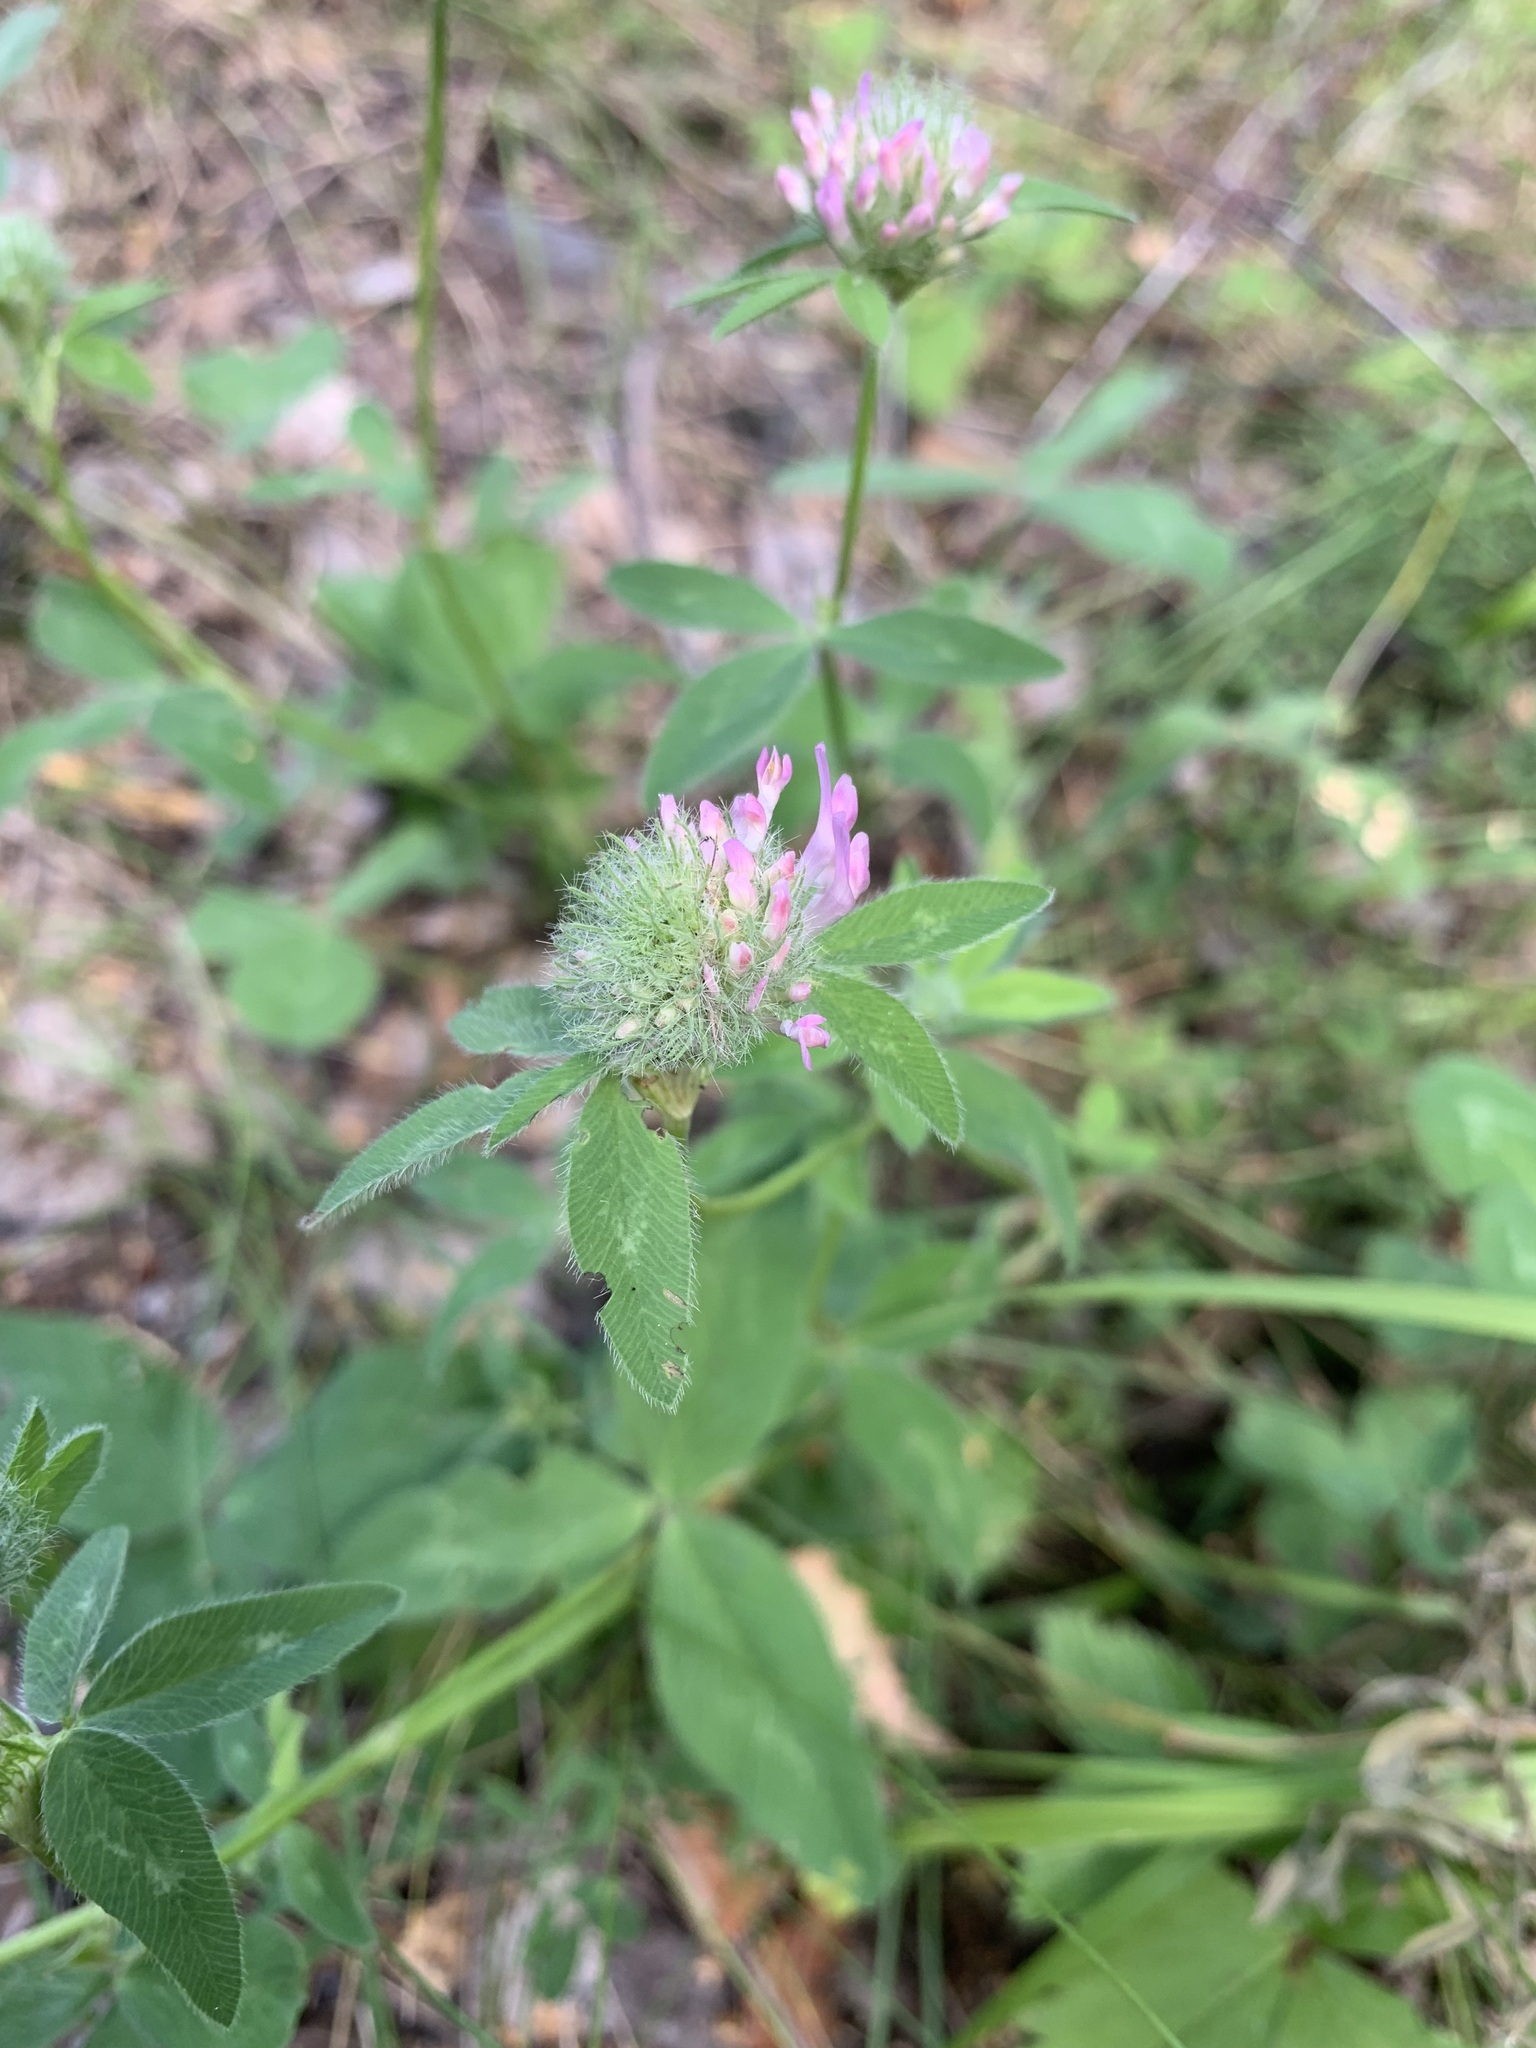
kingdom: Plantae
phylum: Tracheophyta
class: Magnoliopsida
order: Fabales
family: Fabaceae
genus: Trifolium
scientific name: Trifolium pratense
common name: Red clover
